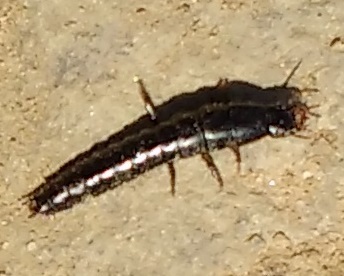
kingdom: Animalia
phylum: Arthropoda
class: Insecta
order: Coleoptera
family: Carabidae
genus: Carabus
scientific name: Carabus
